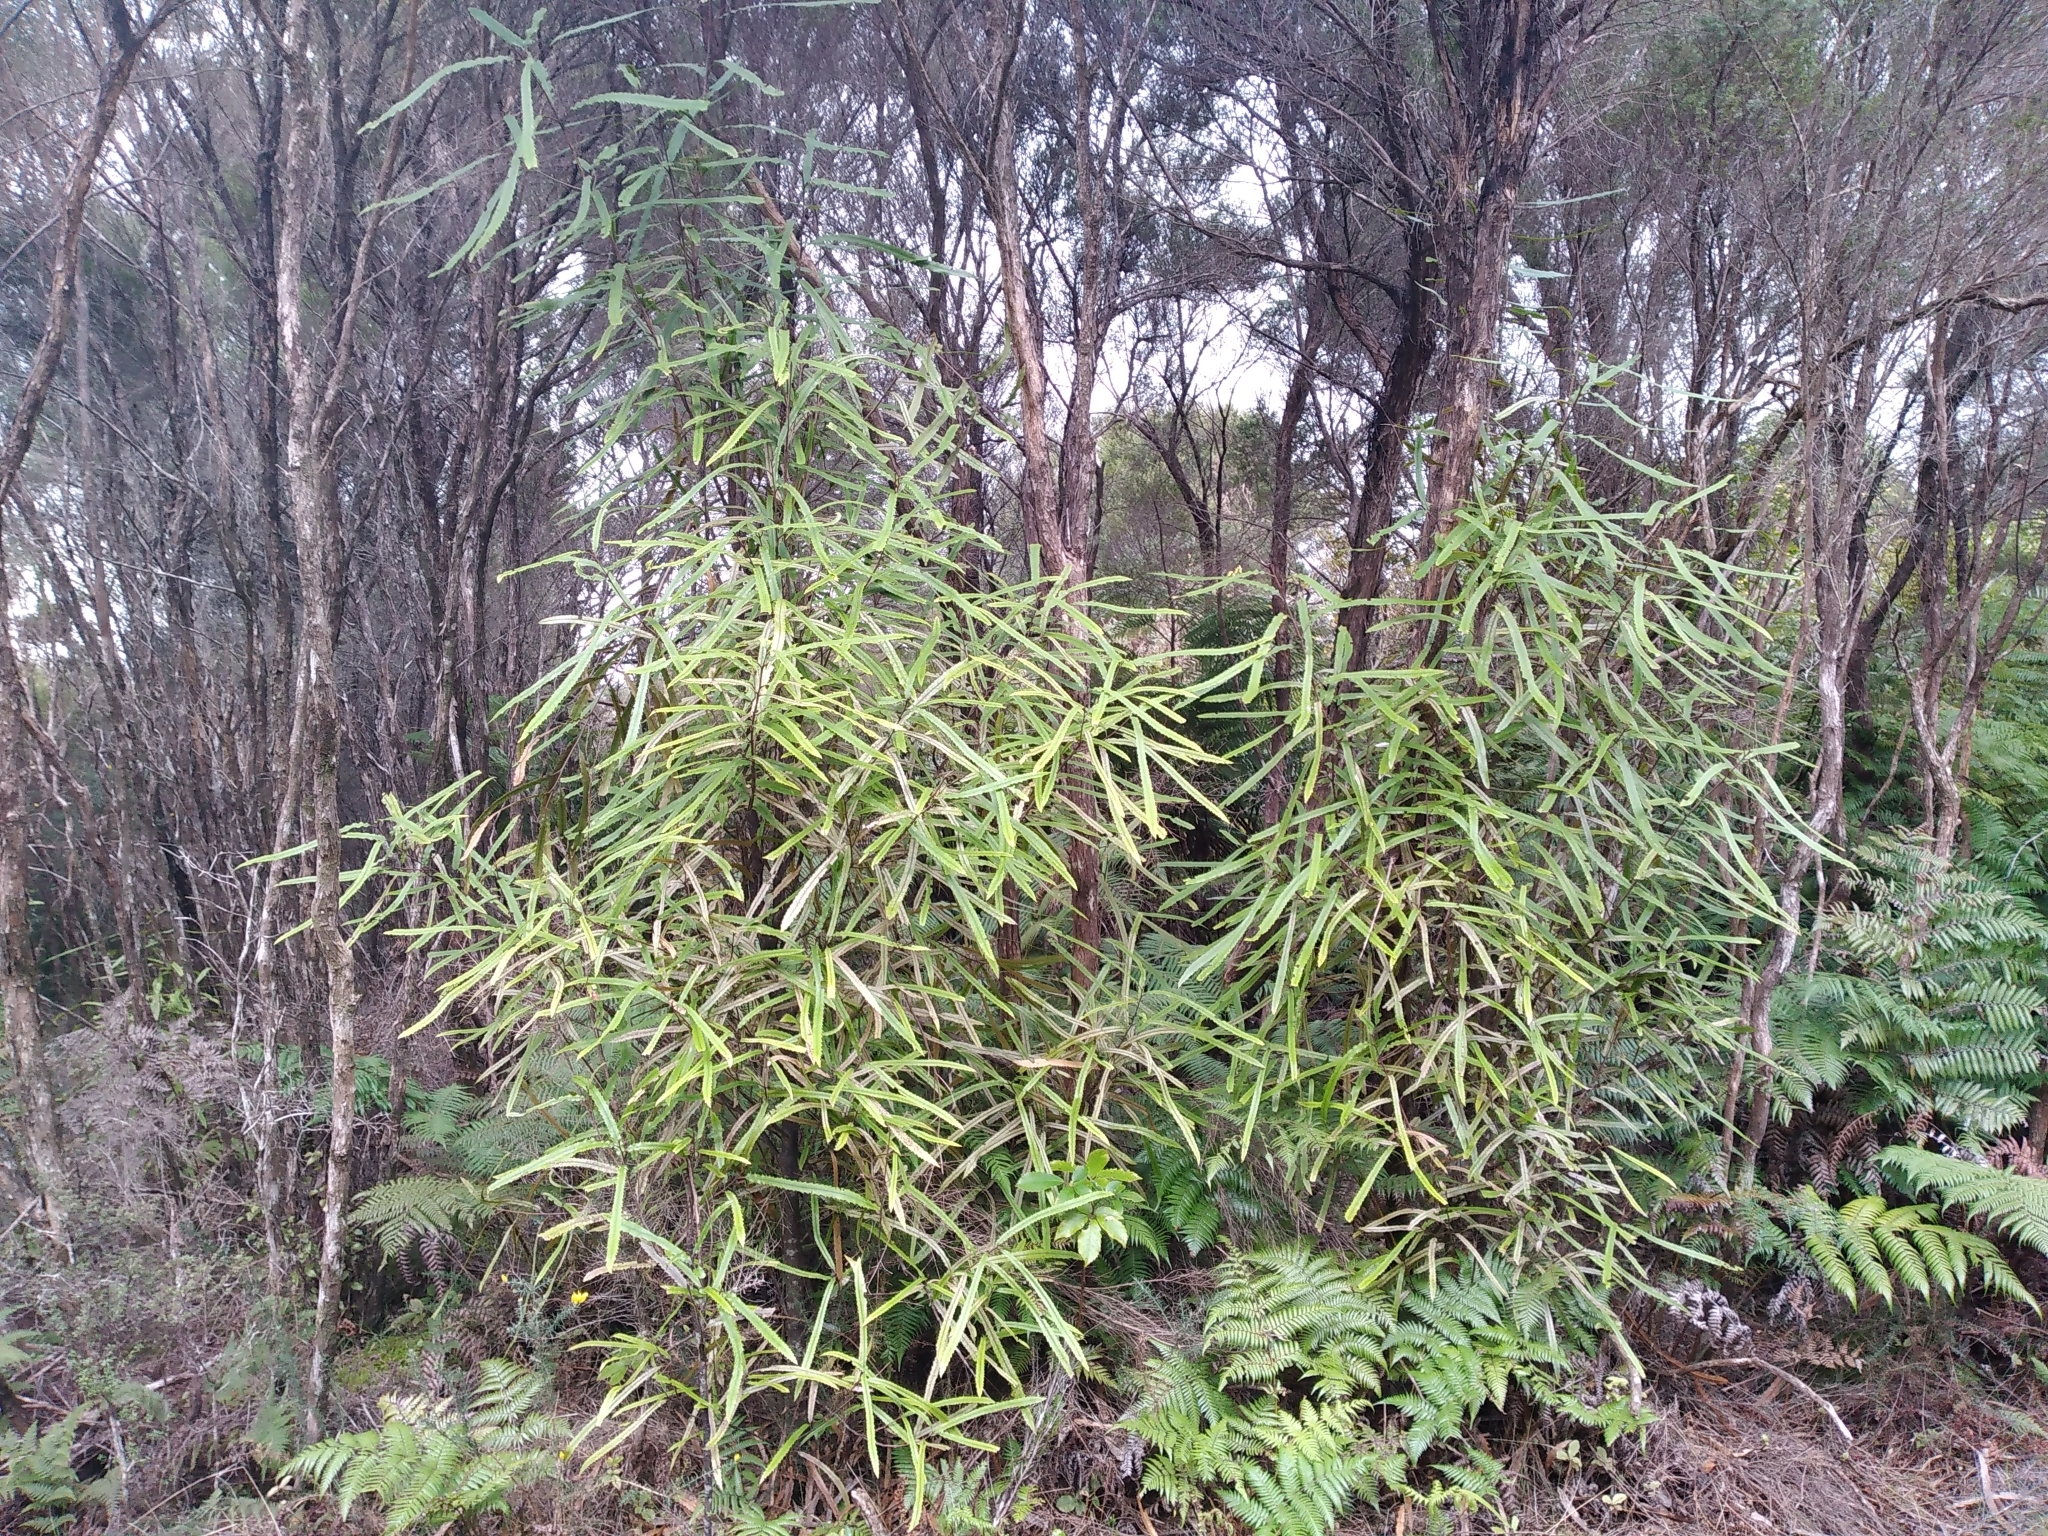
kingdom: Plantae
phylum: Tracheophyta
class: Magnoliopsida
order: Proteales
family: Proteaceae
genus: Knightia
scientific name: Knightia excelsa
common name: New zealand-honeysuckle
